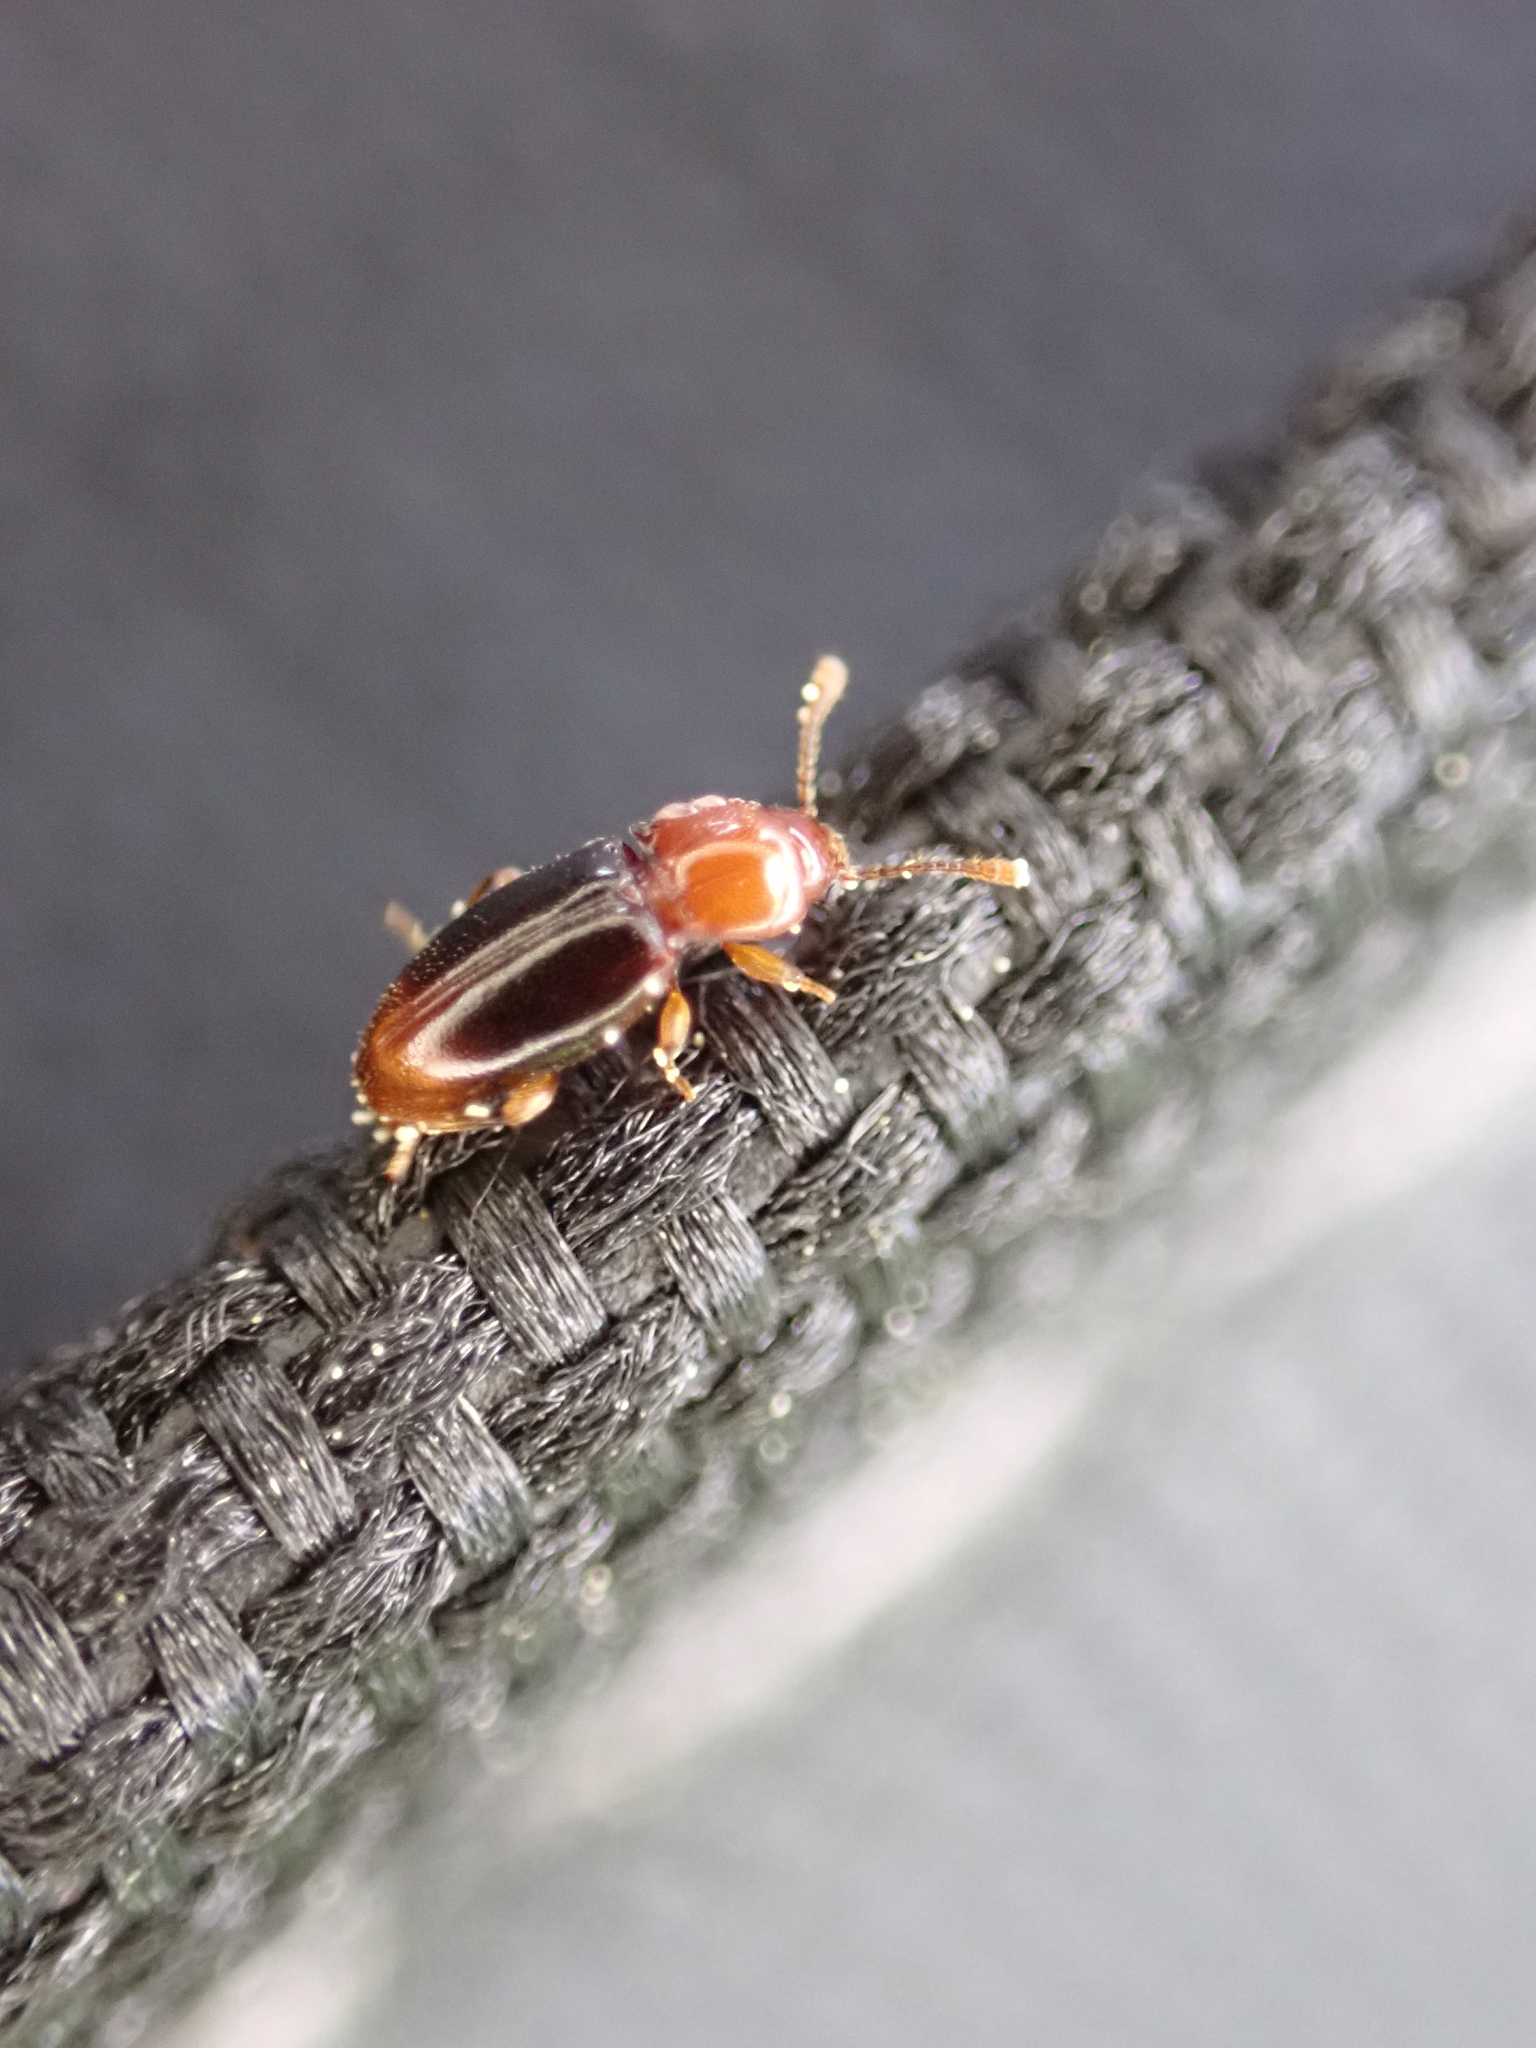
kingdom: Animalia
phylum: Arthropoda
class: Insecta
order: Coleoptera
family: Endomychidae
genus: Rhanidea
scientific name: Rhanidea unicolor
